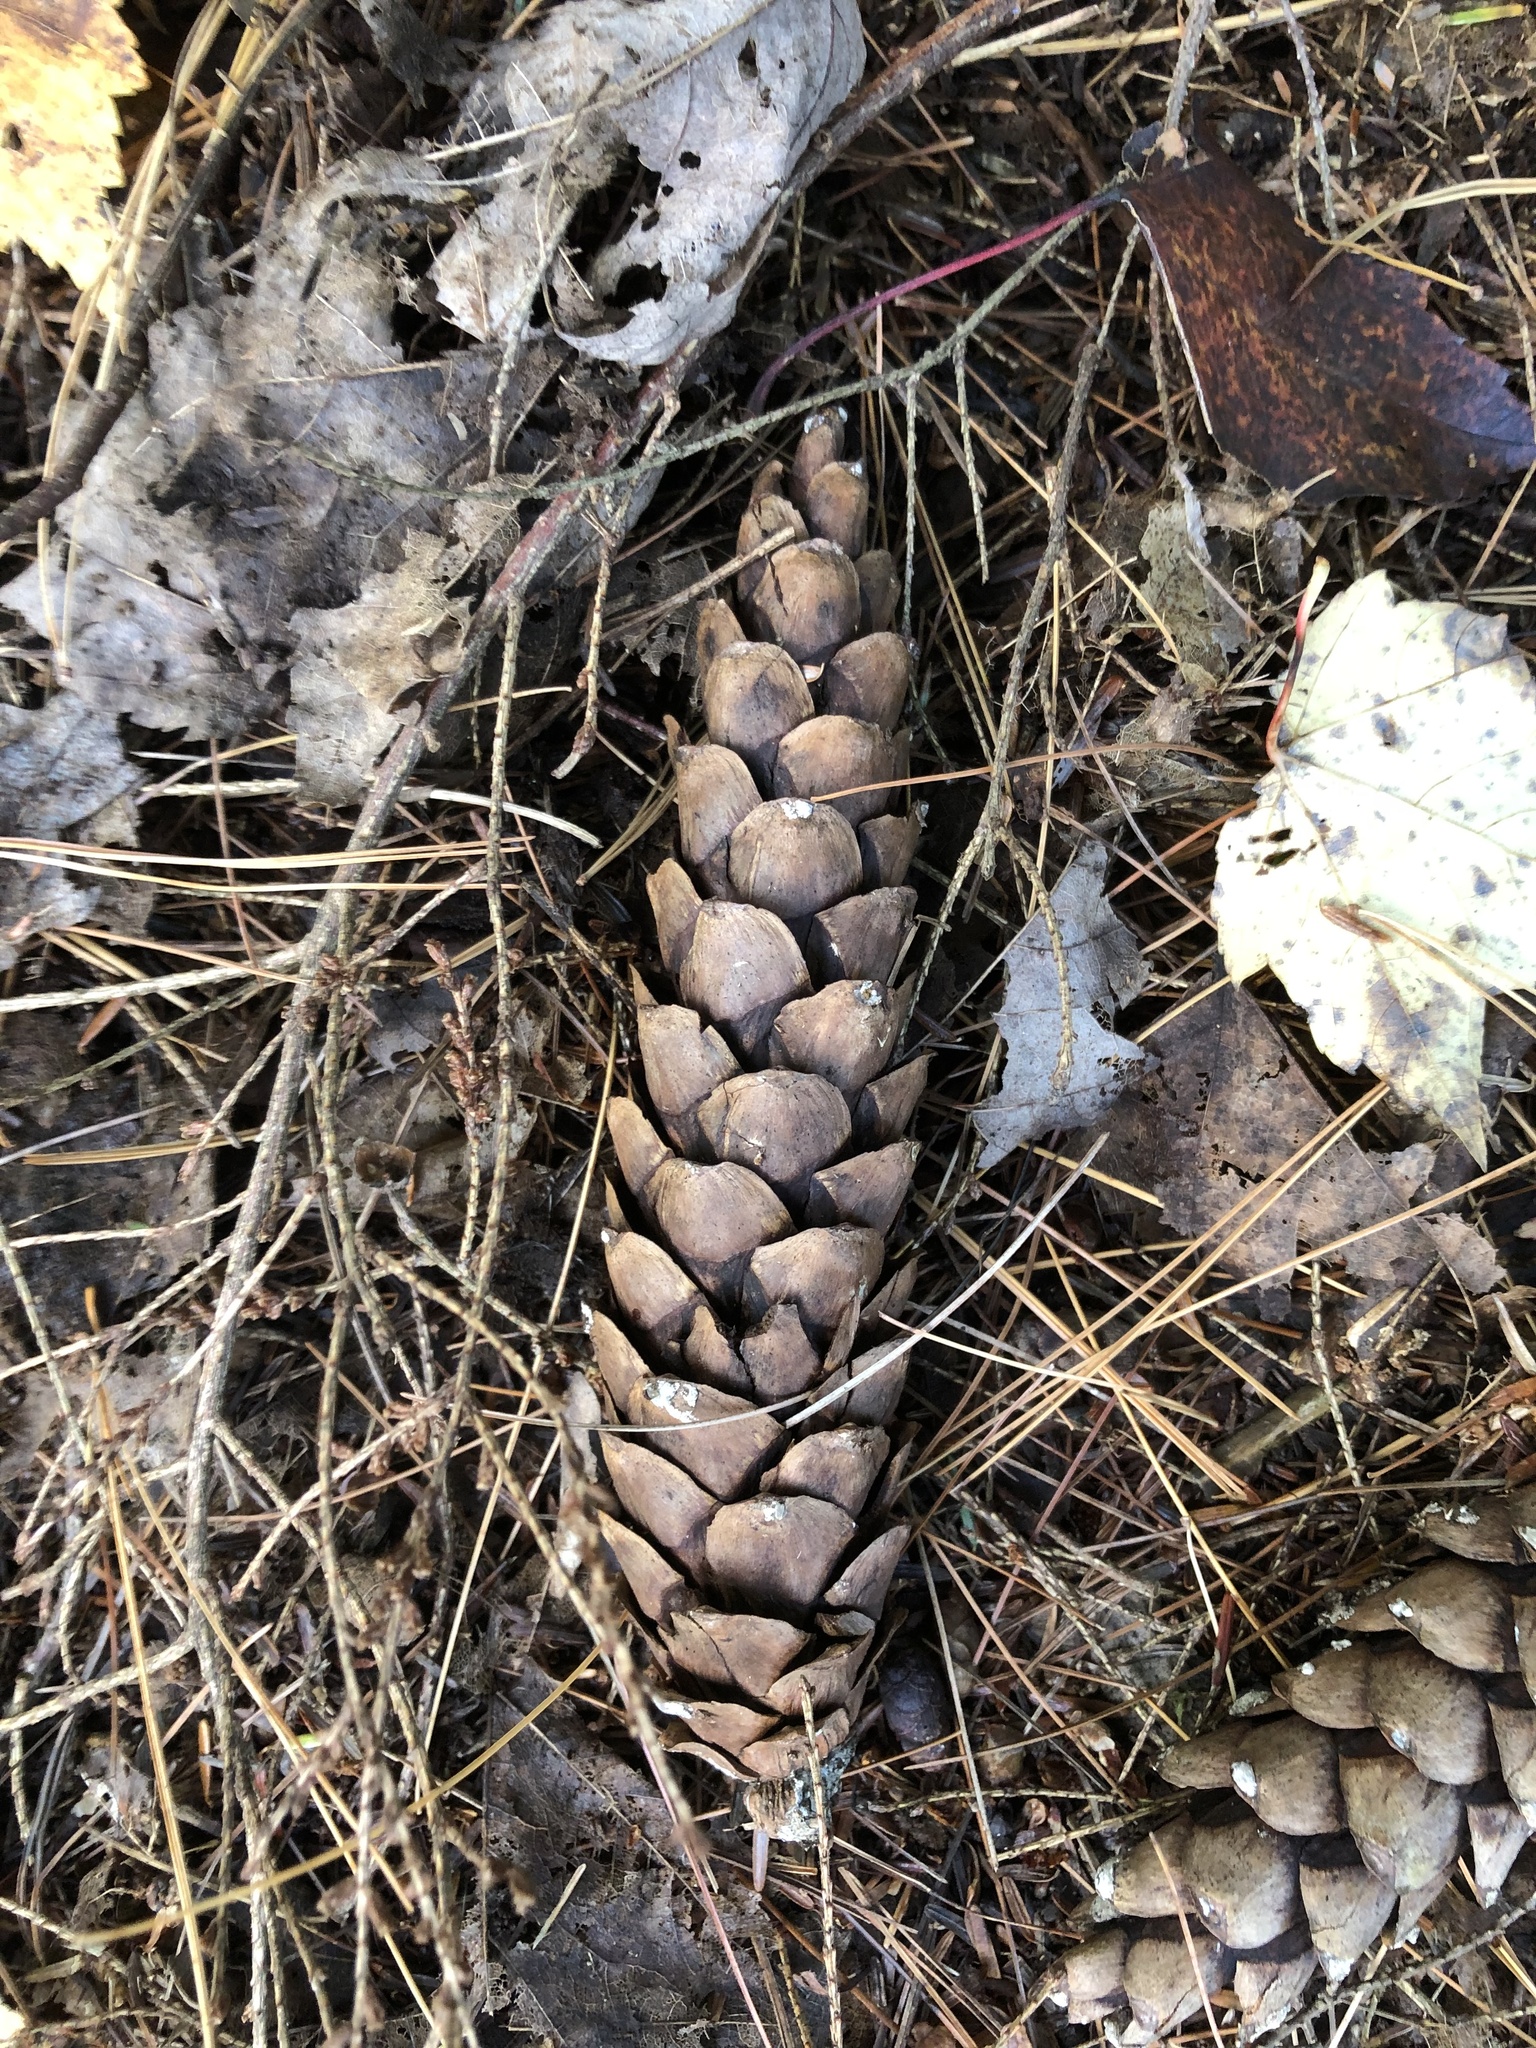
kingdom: Plantae
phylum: Tracheophyta
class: Pinopsida
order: Pinales
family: Pinaceae
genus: Pinus
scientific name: Pinus strobus
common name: Weymouth pine
